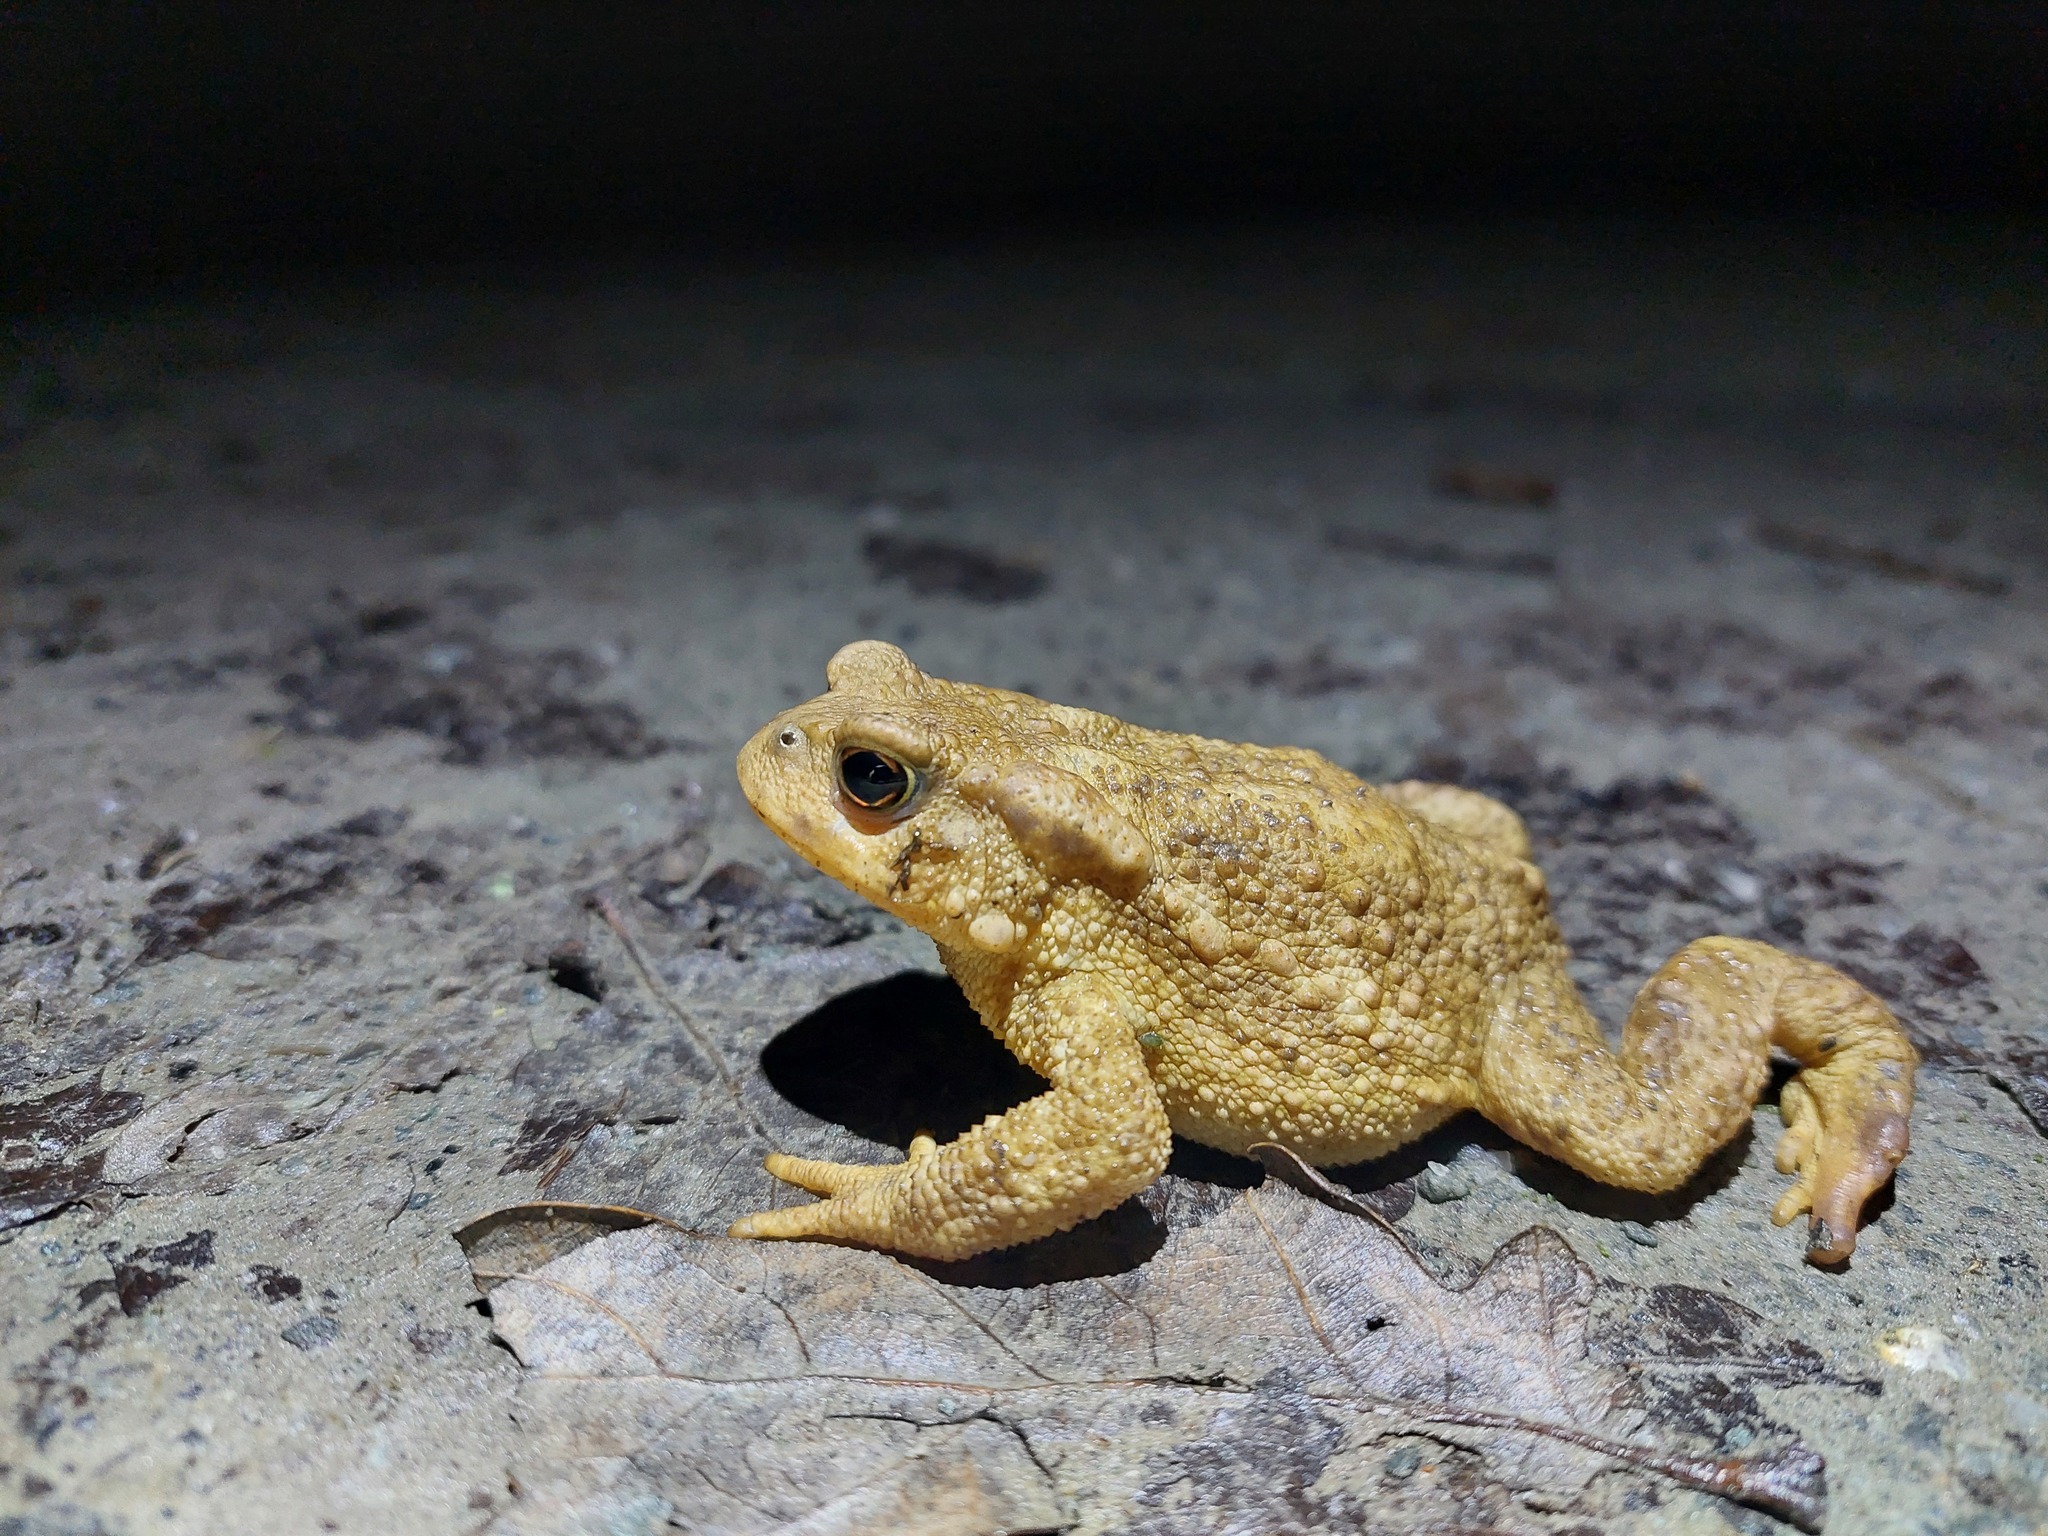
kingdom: Animalia
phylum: Chordata
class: Amphibia
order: Anura
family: Bufonidae
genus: Bufo
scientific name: Bufo spinosus
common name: Western common toad
